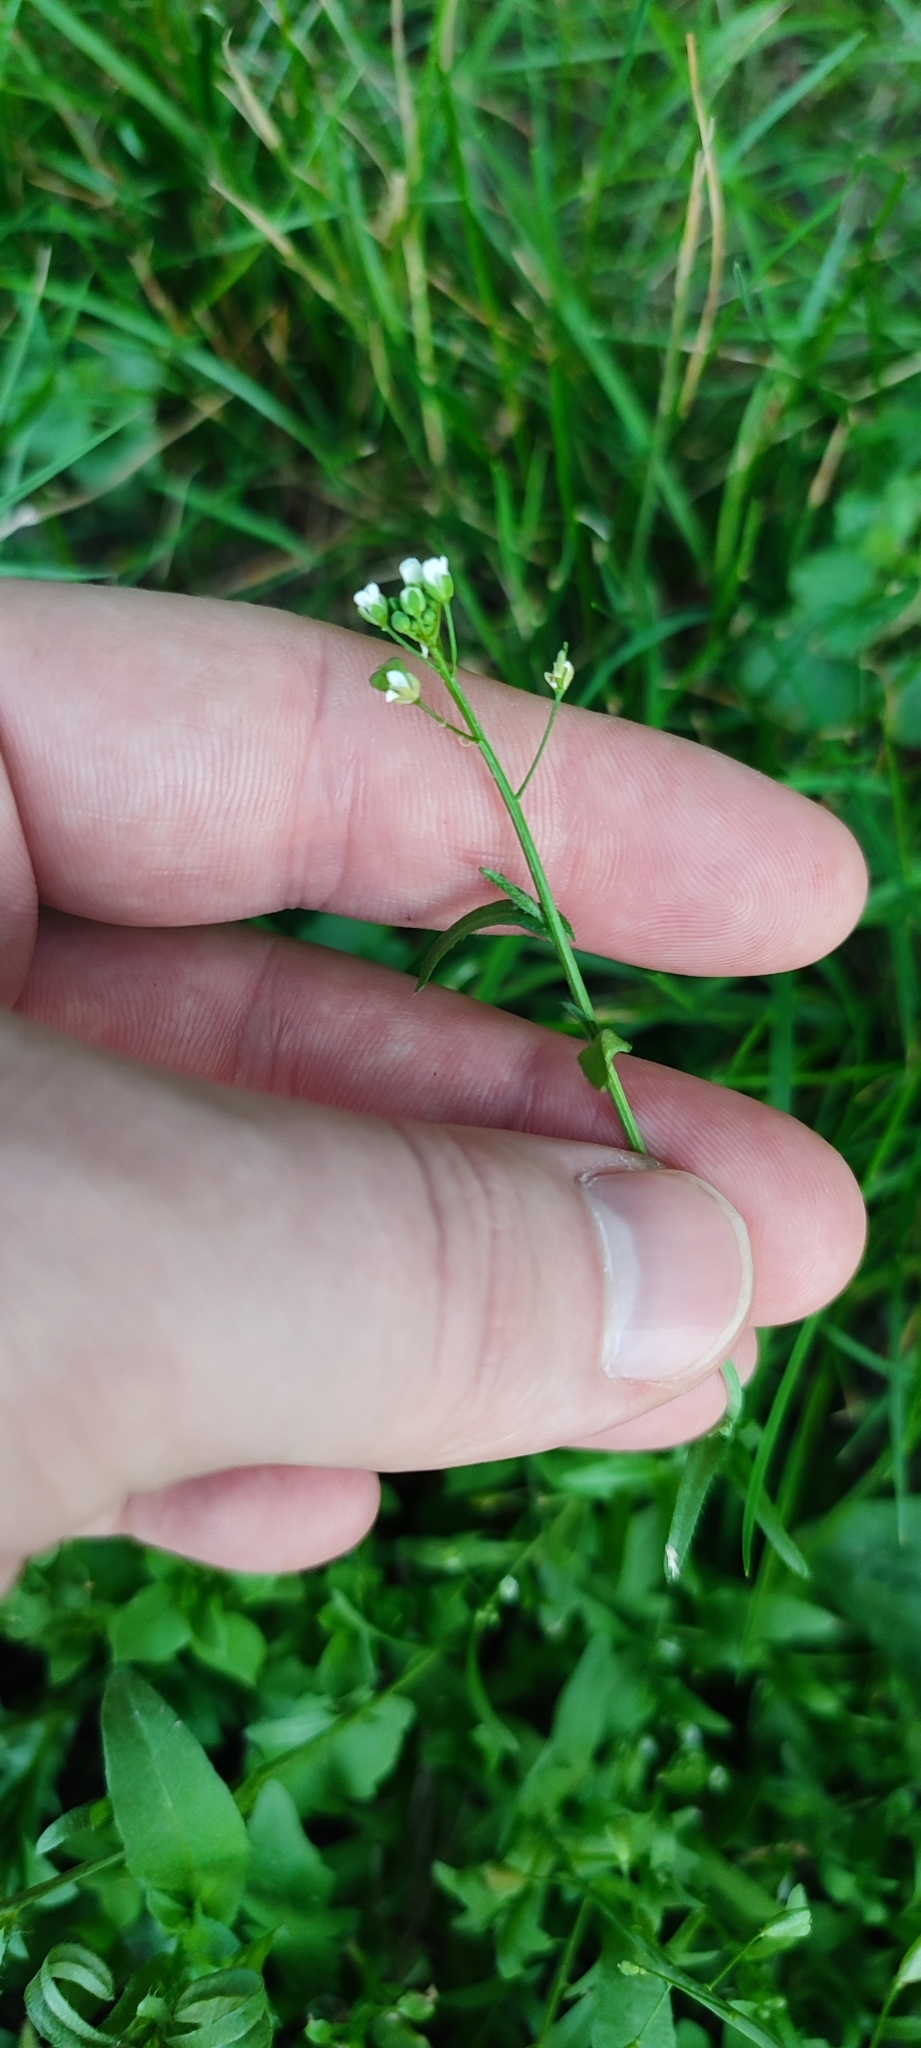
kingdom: Plantae
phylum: Tracheophyta
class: Magnoliopsida
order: Brassicales
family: Brassicaceae
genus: Capsella
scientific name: Capsella bursa-pastoris
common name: Shepherd's purse
